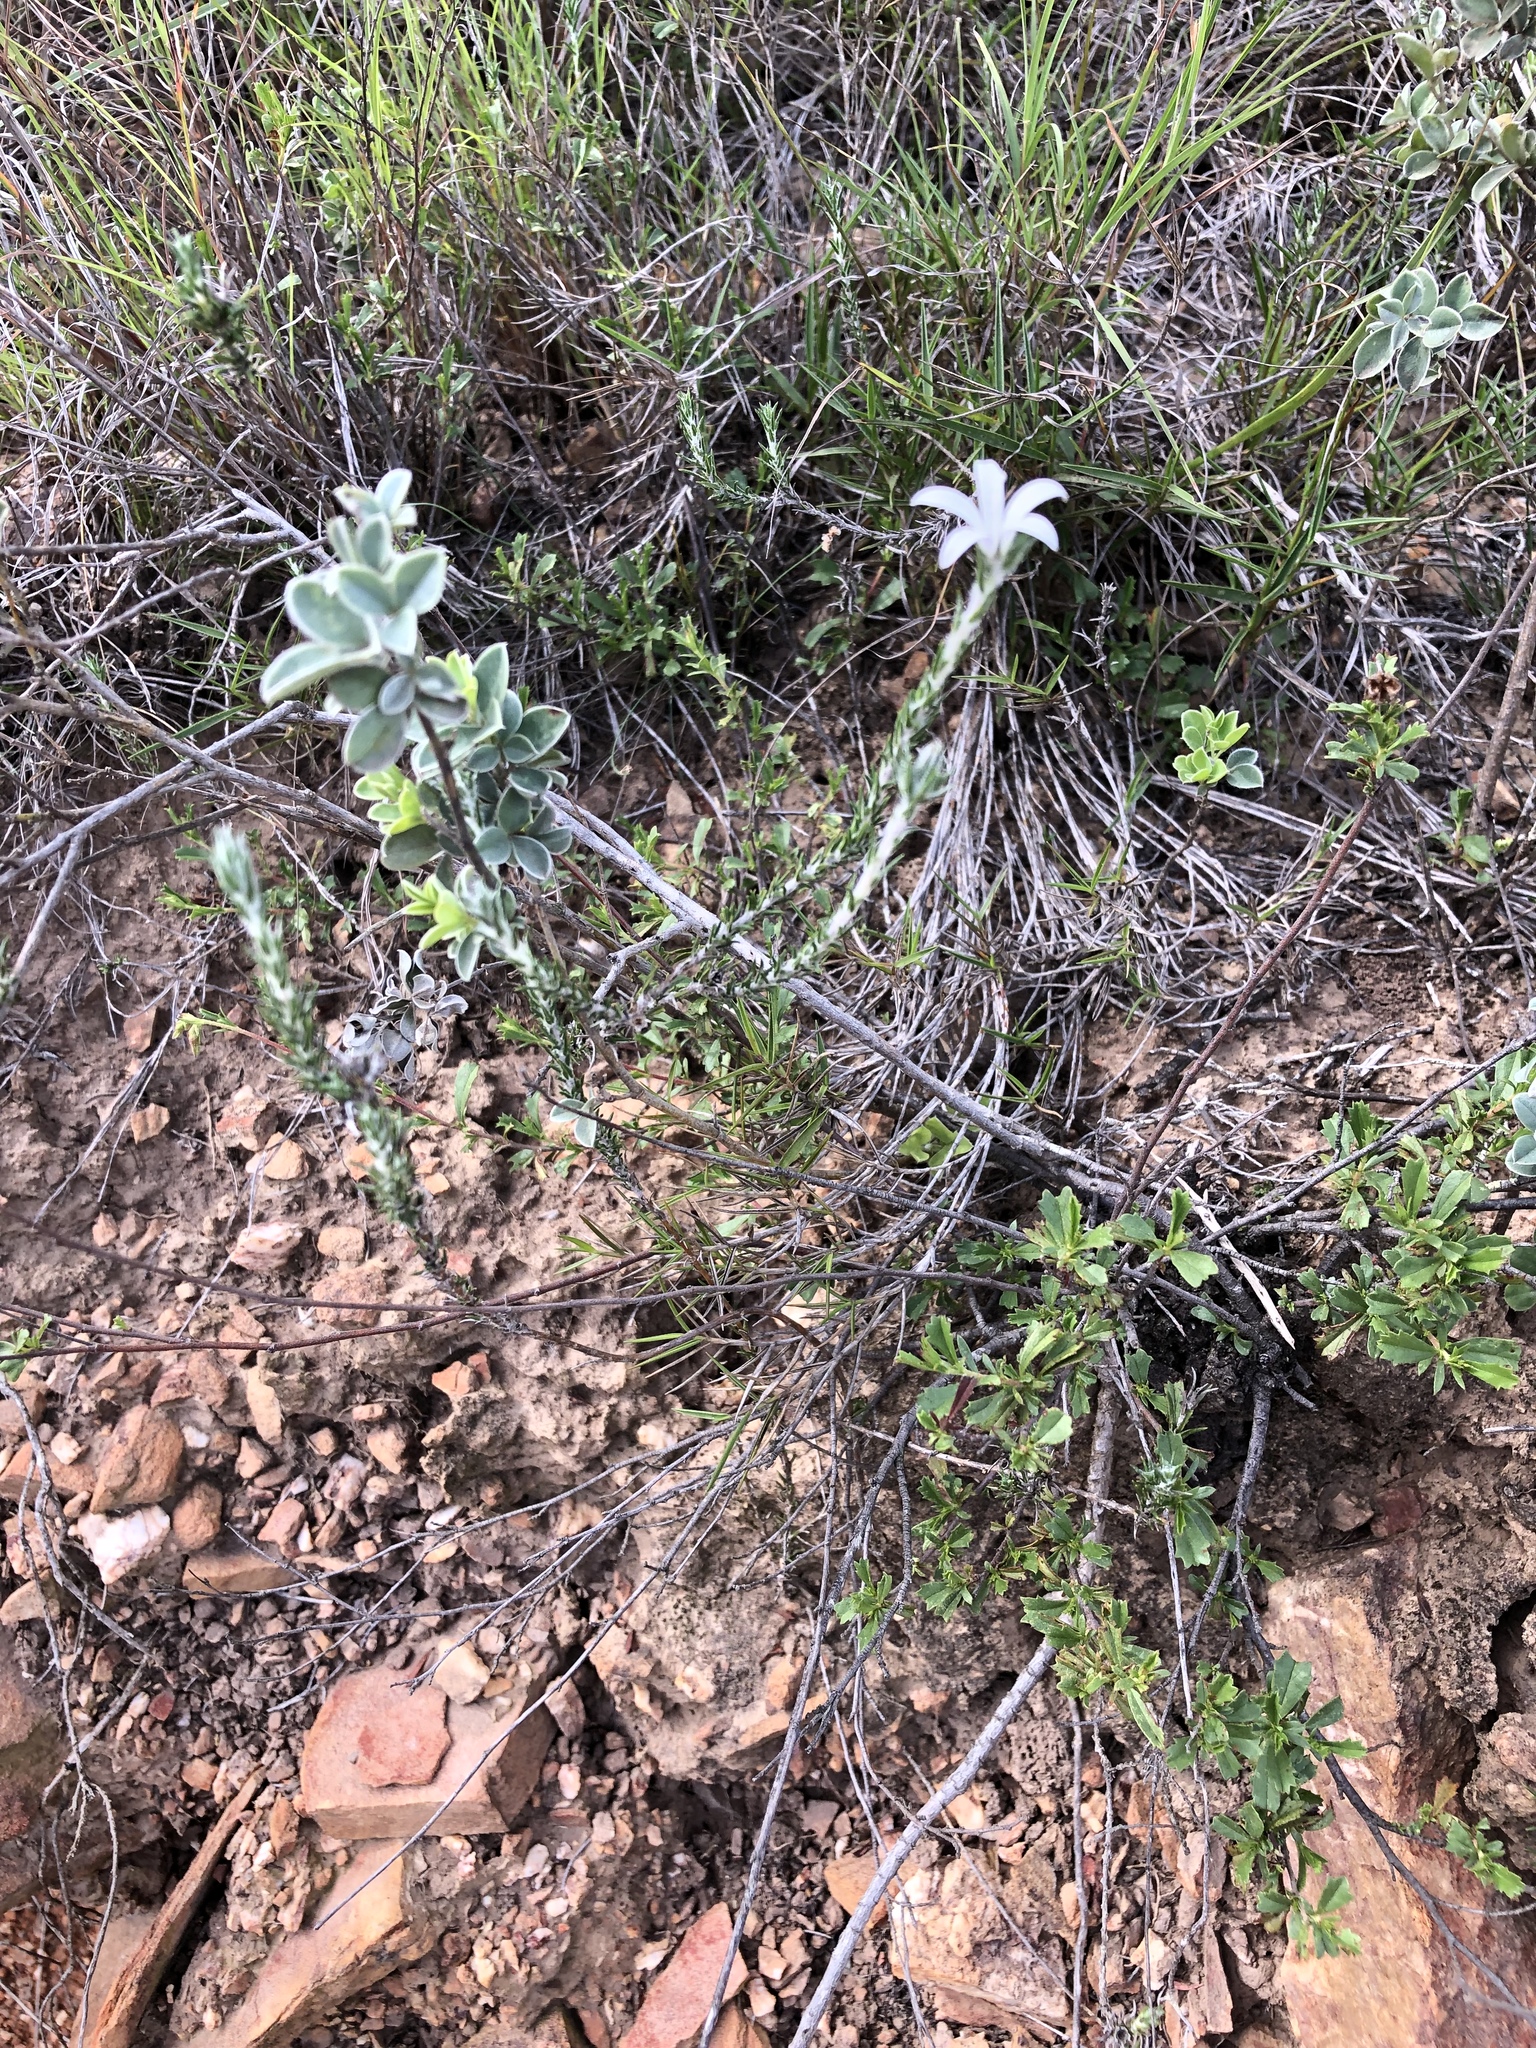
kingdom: Plantae
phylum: Tracheophyta
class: Magnoliopsida
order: Asterales
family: Campanulaceae
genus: Wahlenbergia
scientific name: Wahlenbergia cinerea
